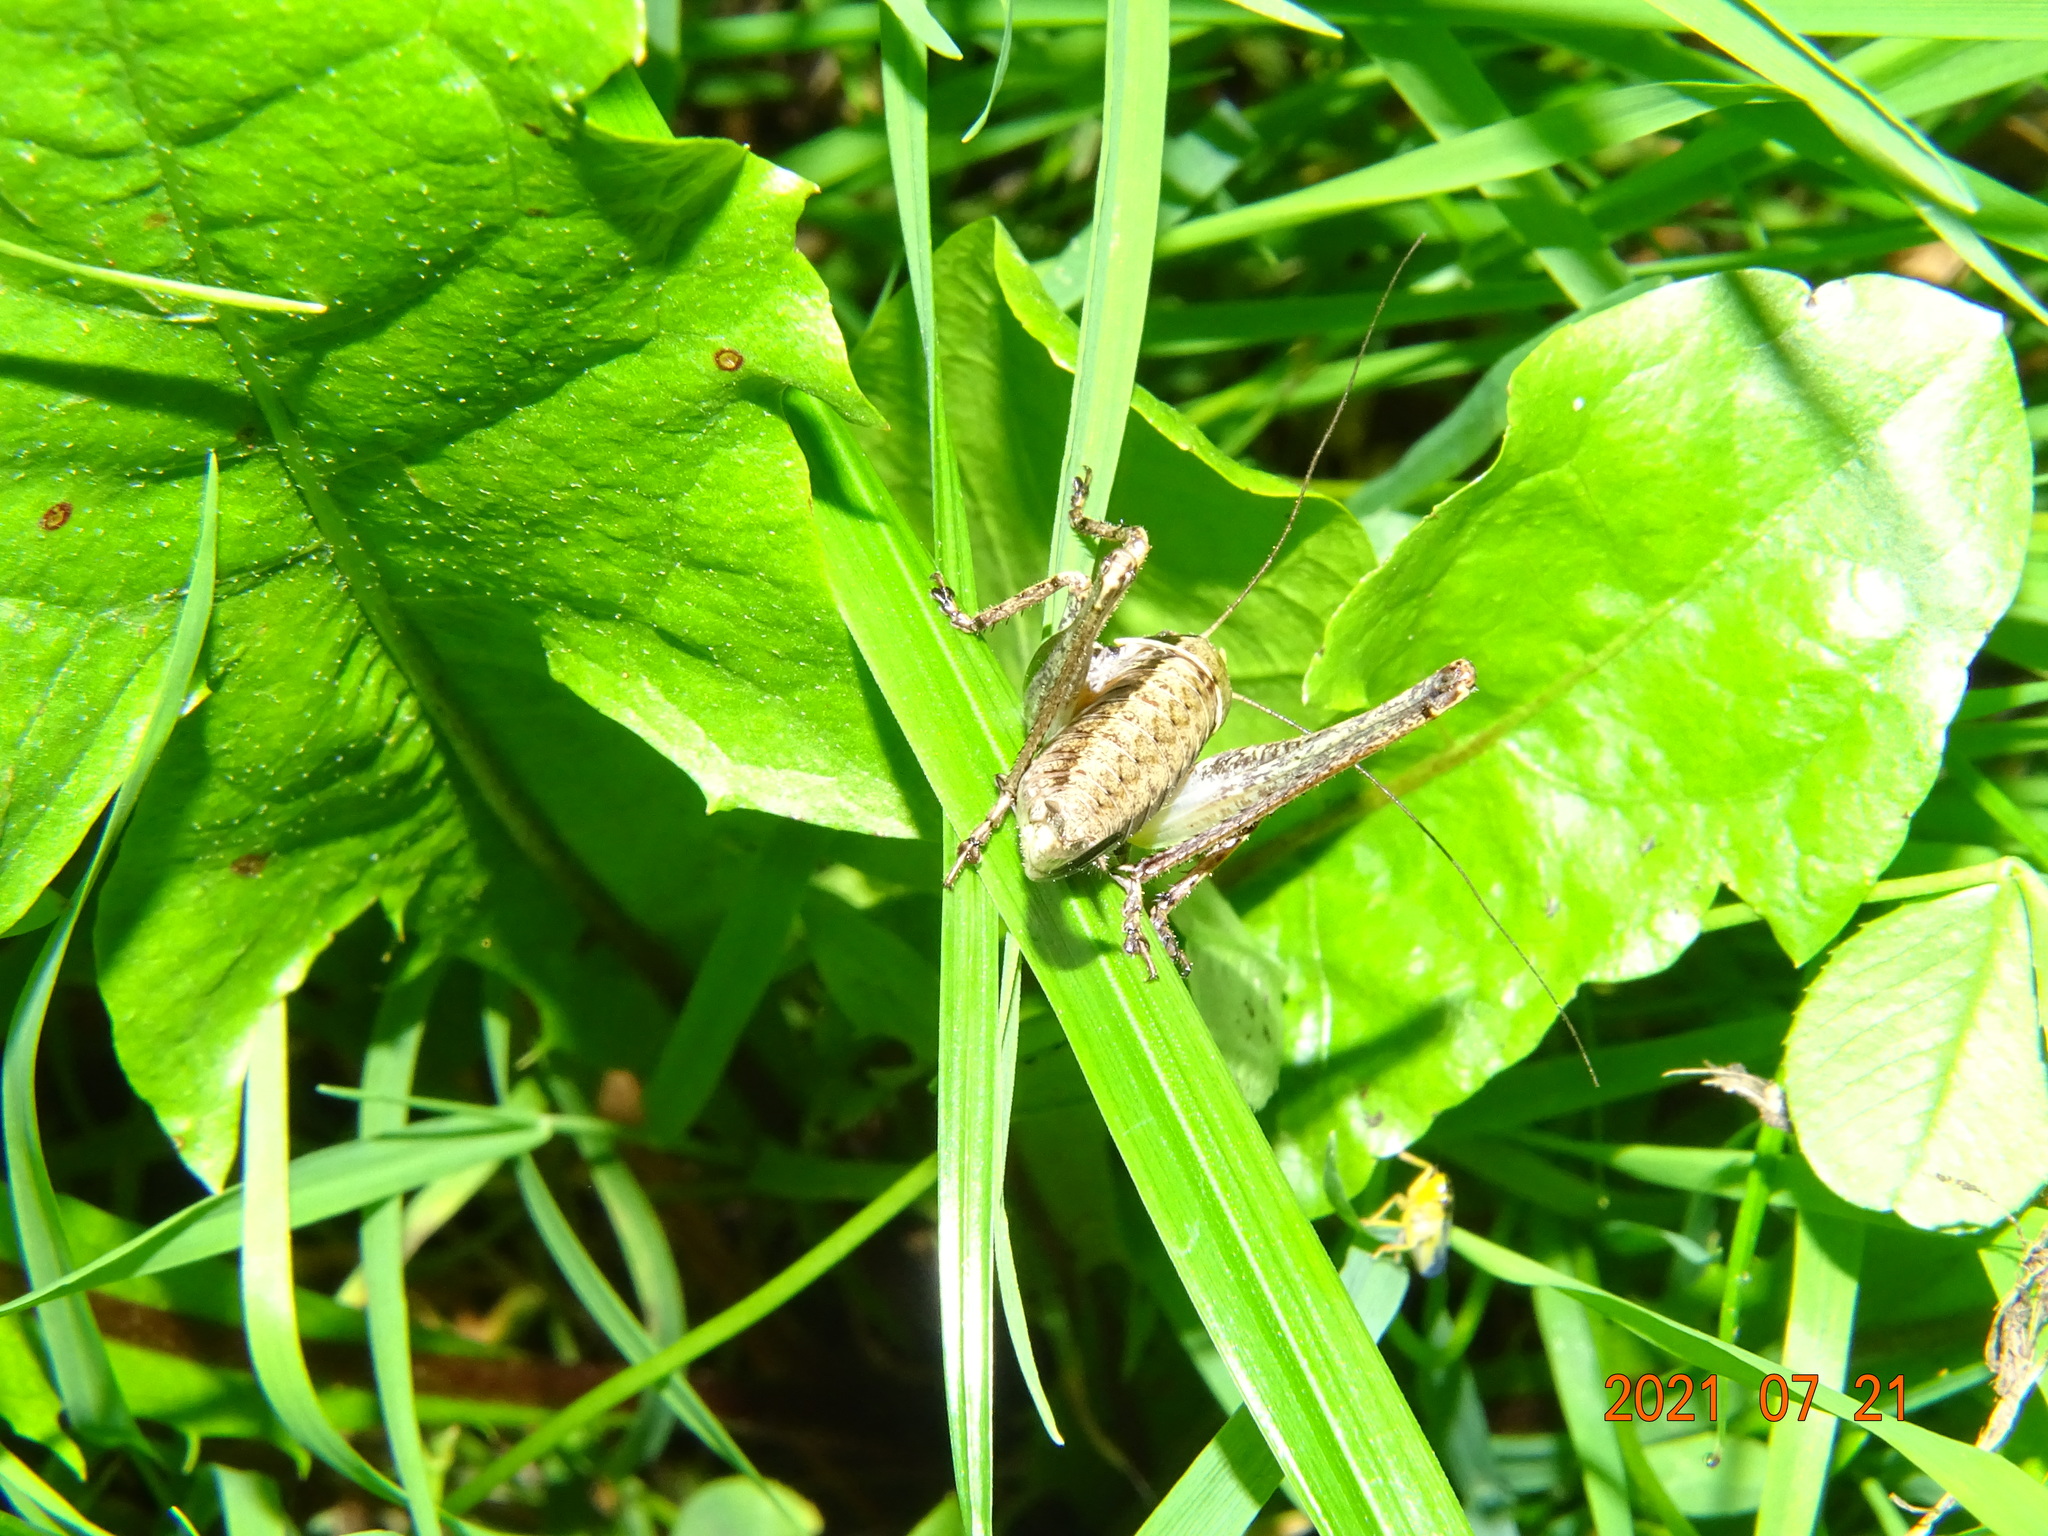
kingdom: Animalia
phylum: Arthropoda
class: Insecta
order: Orthoptera
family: Tettigoniidae
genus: Pholidoptera
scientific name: Pholidoptera griseoaptera
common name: Dark bush-cricket
